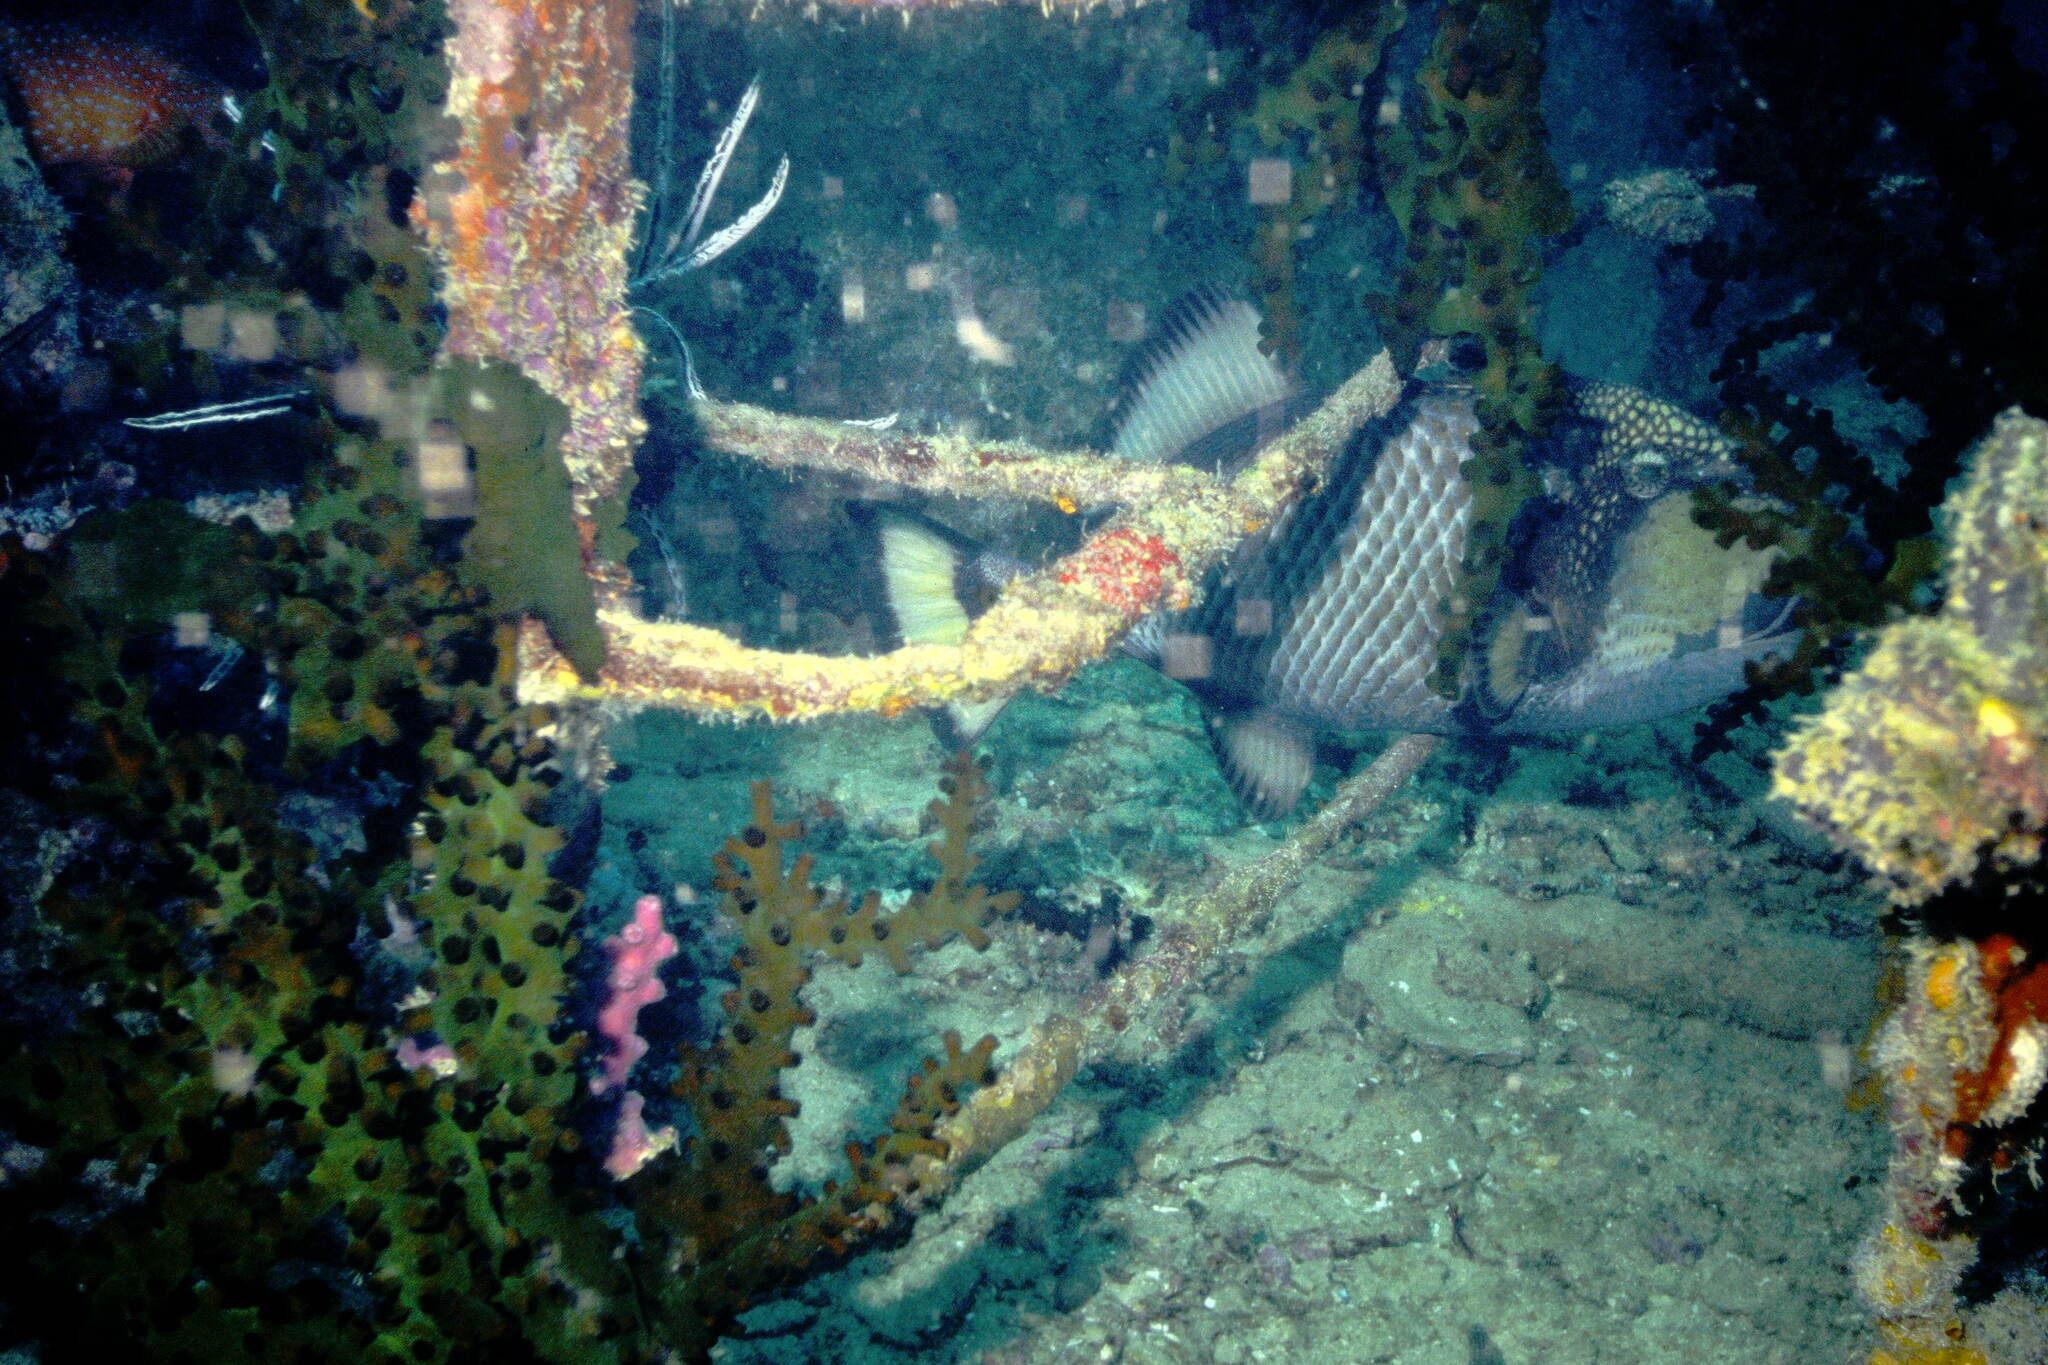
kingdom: Animalia
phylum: Chordata
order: Tetraodontiformes
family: Balistidae
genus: Balistoides
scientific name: Balistoides viridescens
